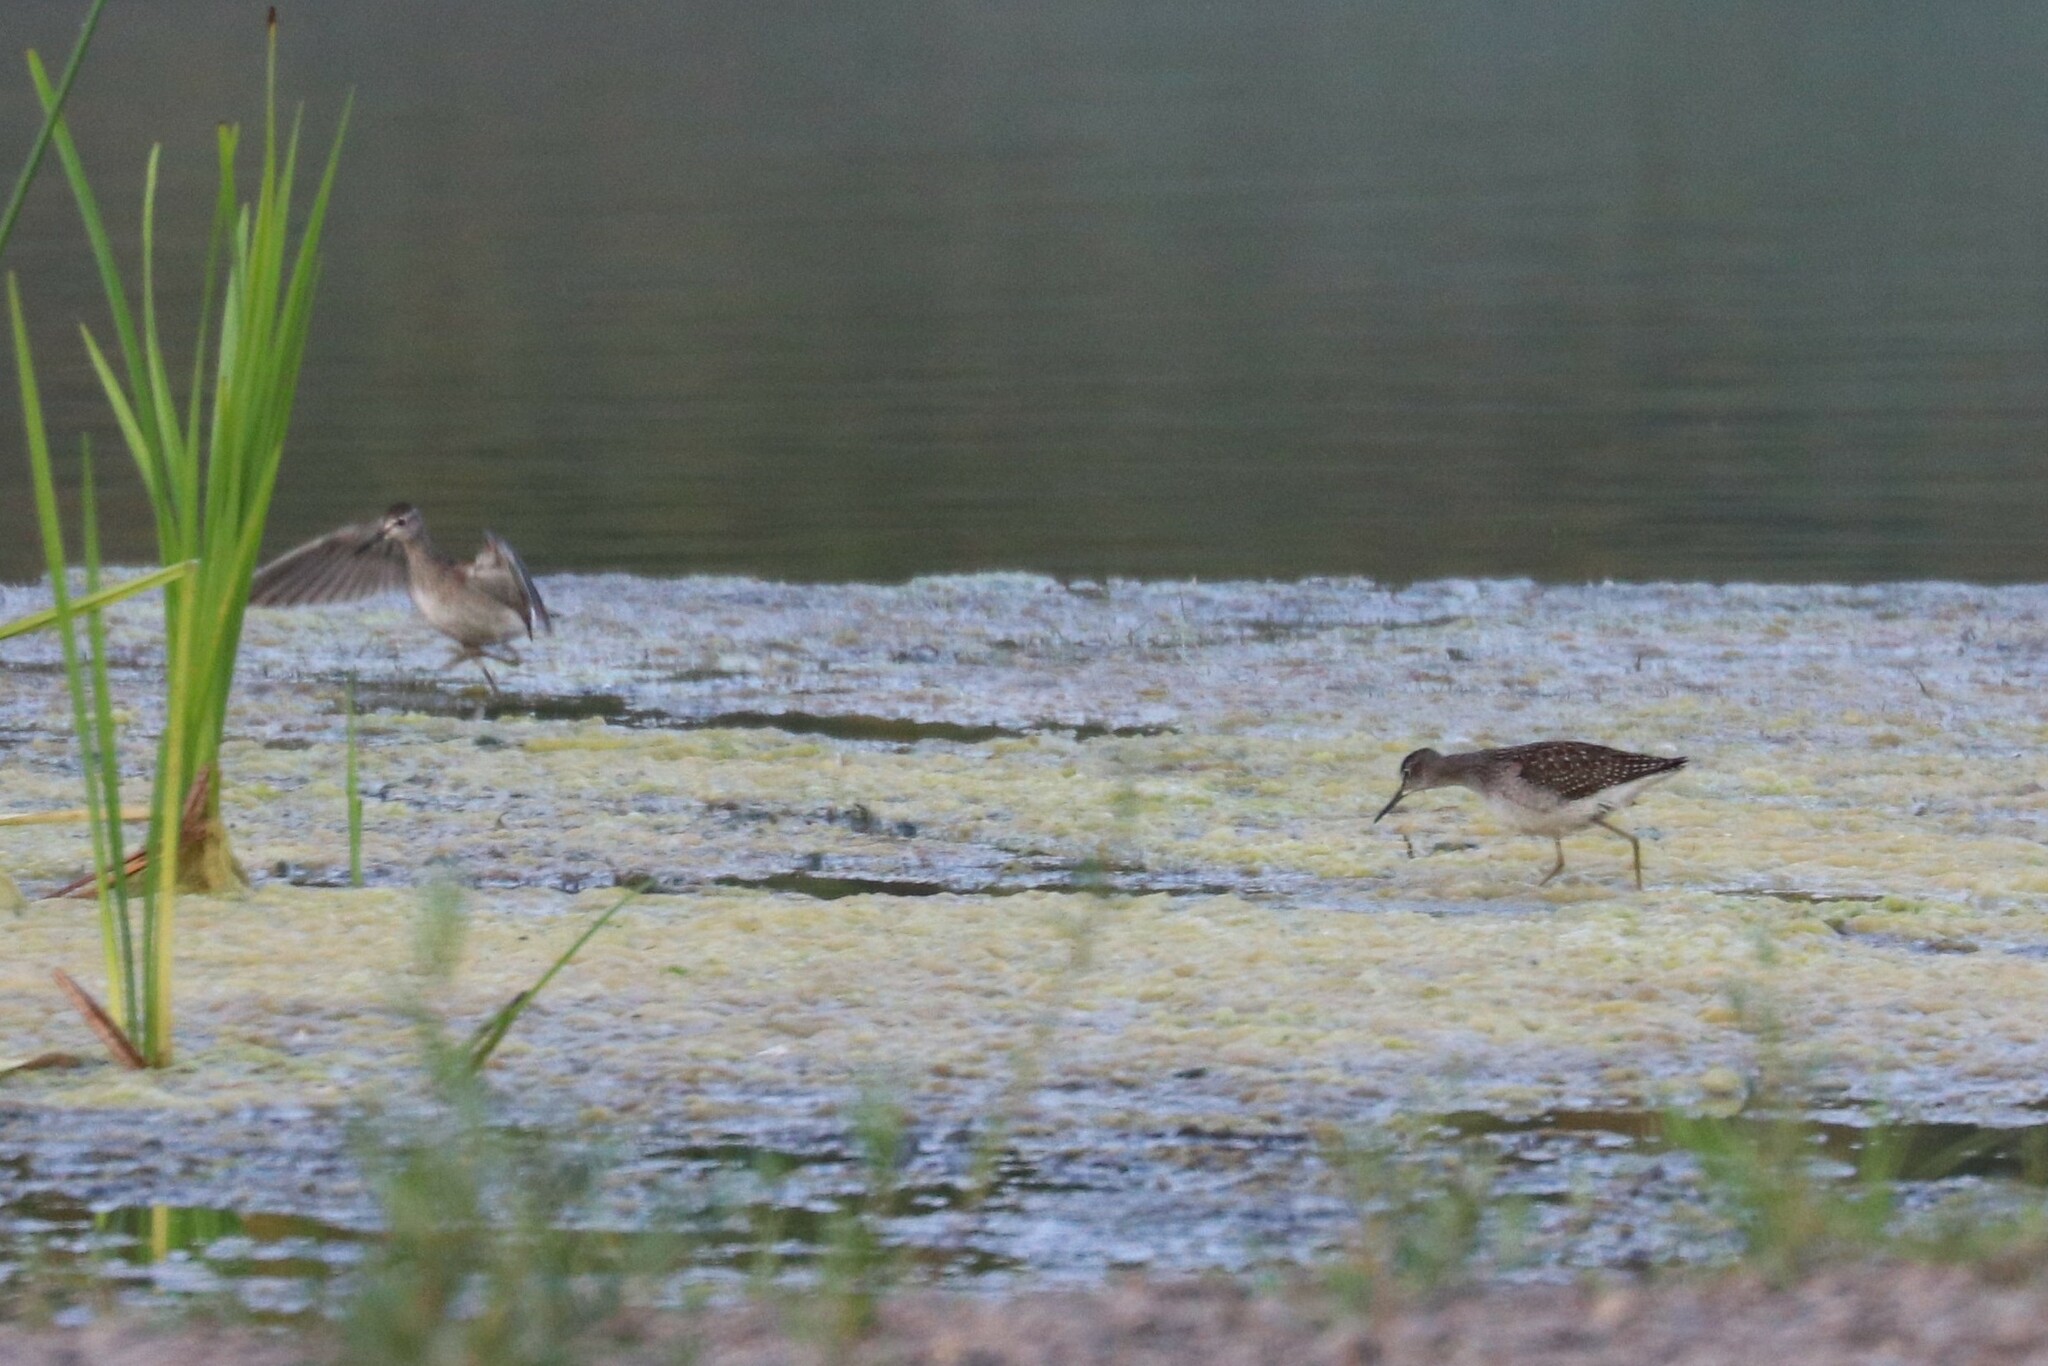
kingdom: Animalia
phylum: Chordata
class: Aves
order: Charadriiformes
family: Scolopacidae
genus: Tringa
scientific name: Tringa glareola
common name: Wood sandpiper
